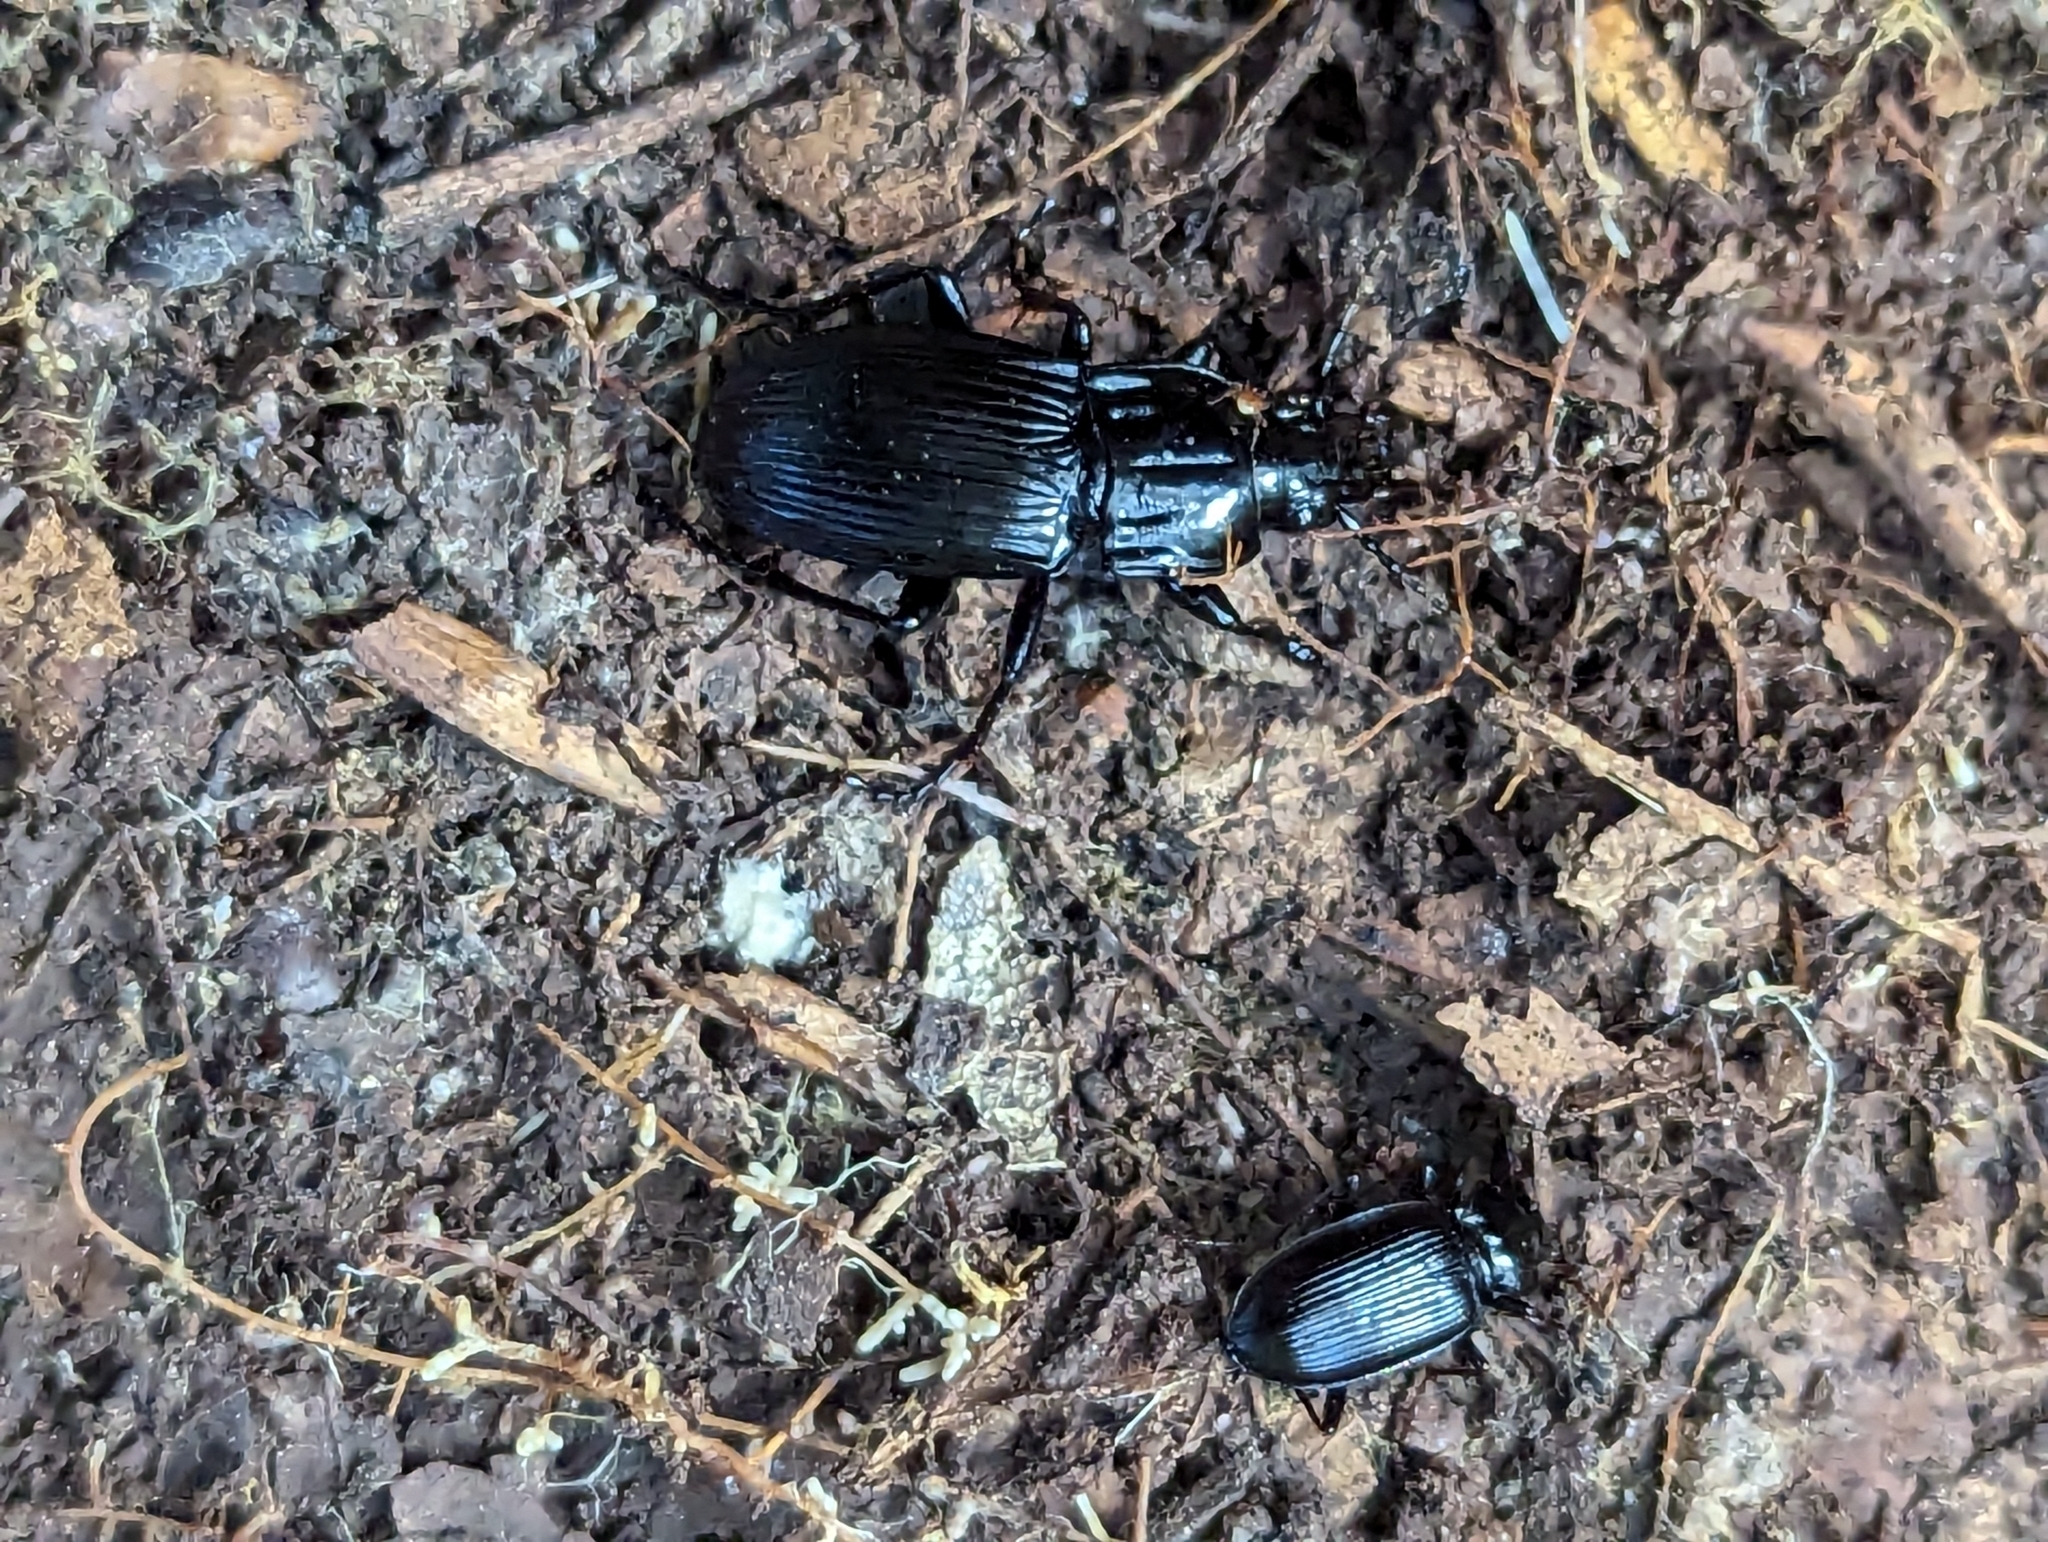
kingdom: Animalia
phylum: Arthropoda
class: Insecta
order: Coleoptera
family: Carabidae
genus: Abax
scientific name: Abax parallelepipedus
